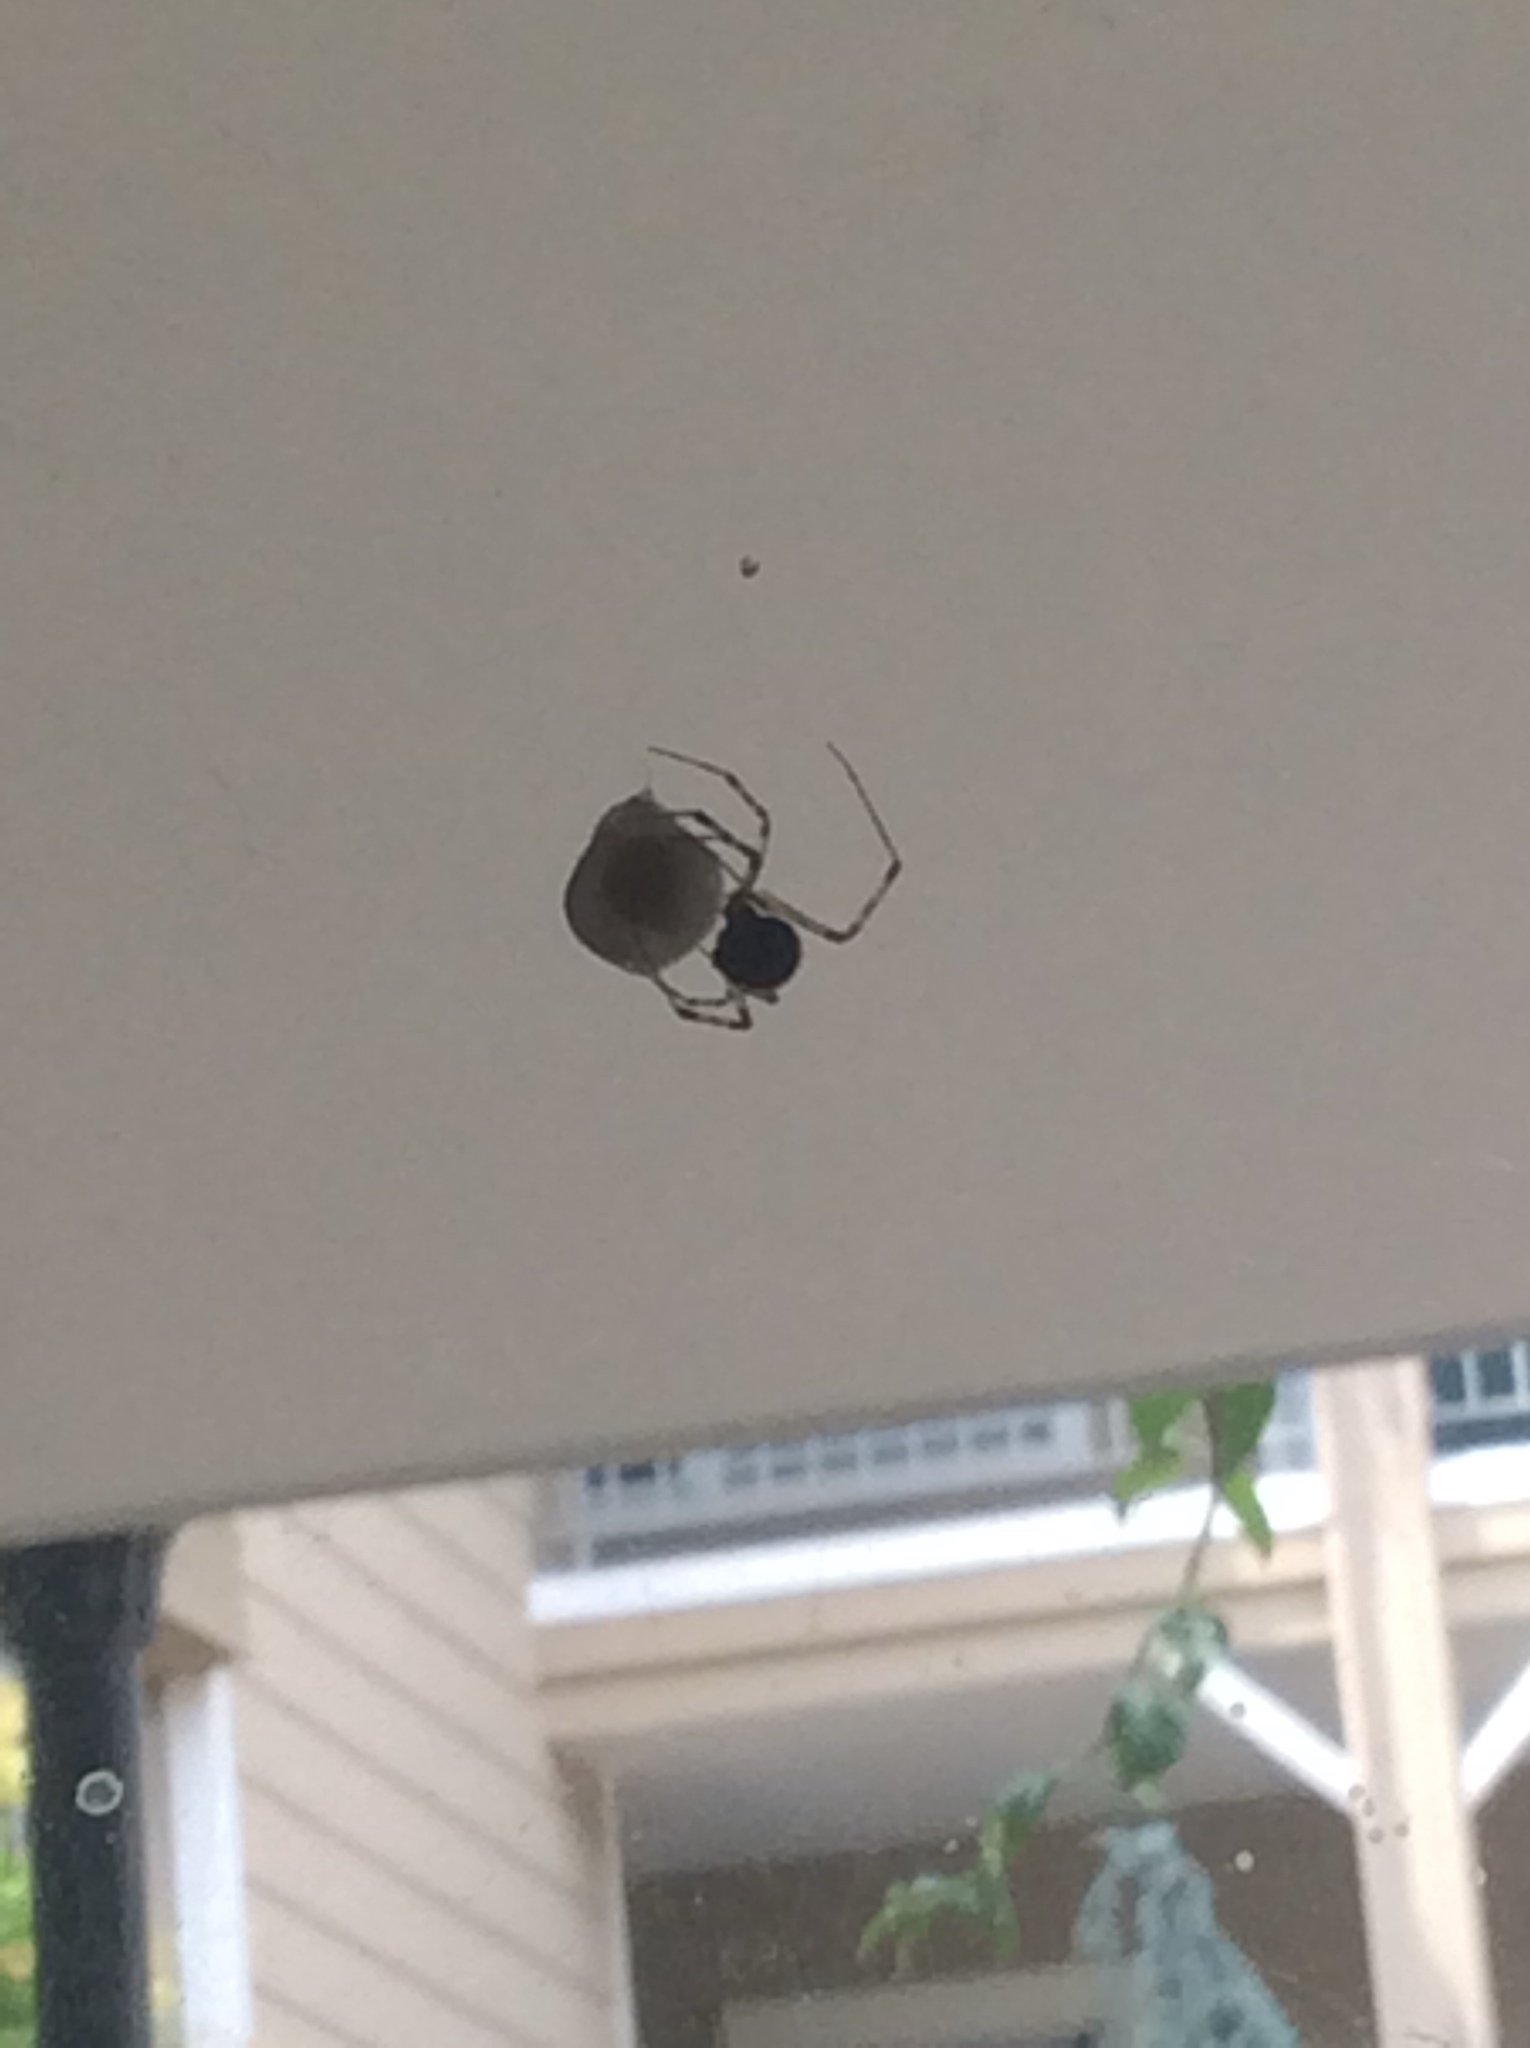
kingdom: Animalia
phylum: Arthropoda
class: Arachnida
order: Araneae
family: Theridiidae
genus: Parasteatoda
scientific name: Parasteatoda tepidariorum
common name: Common house spider
